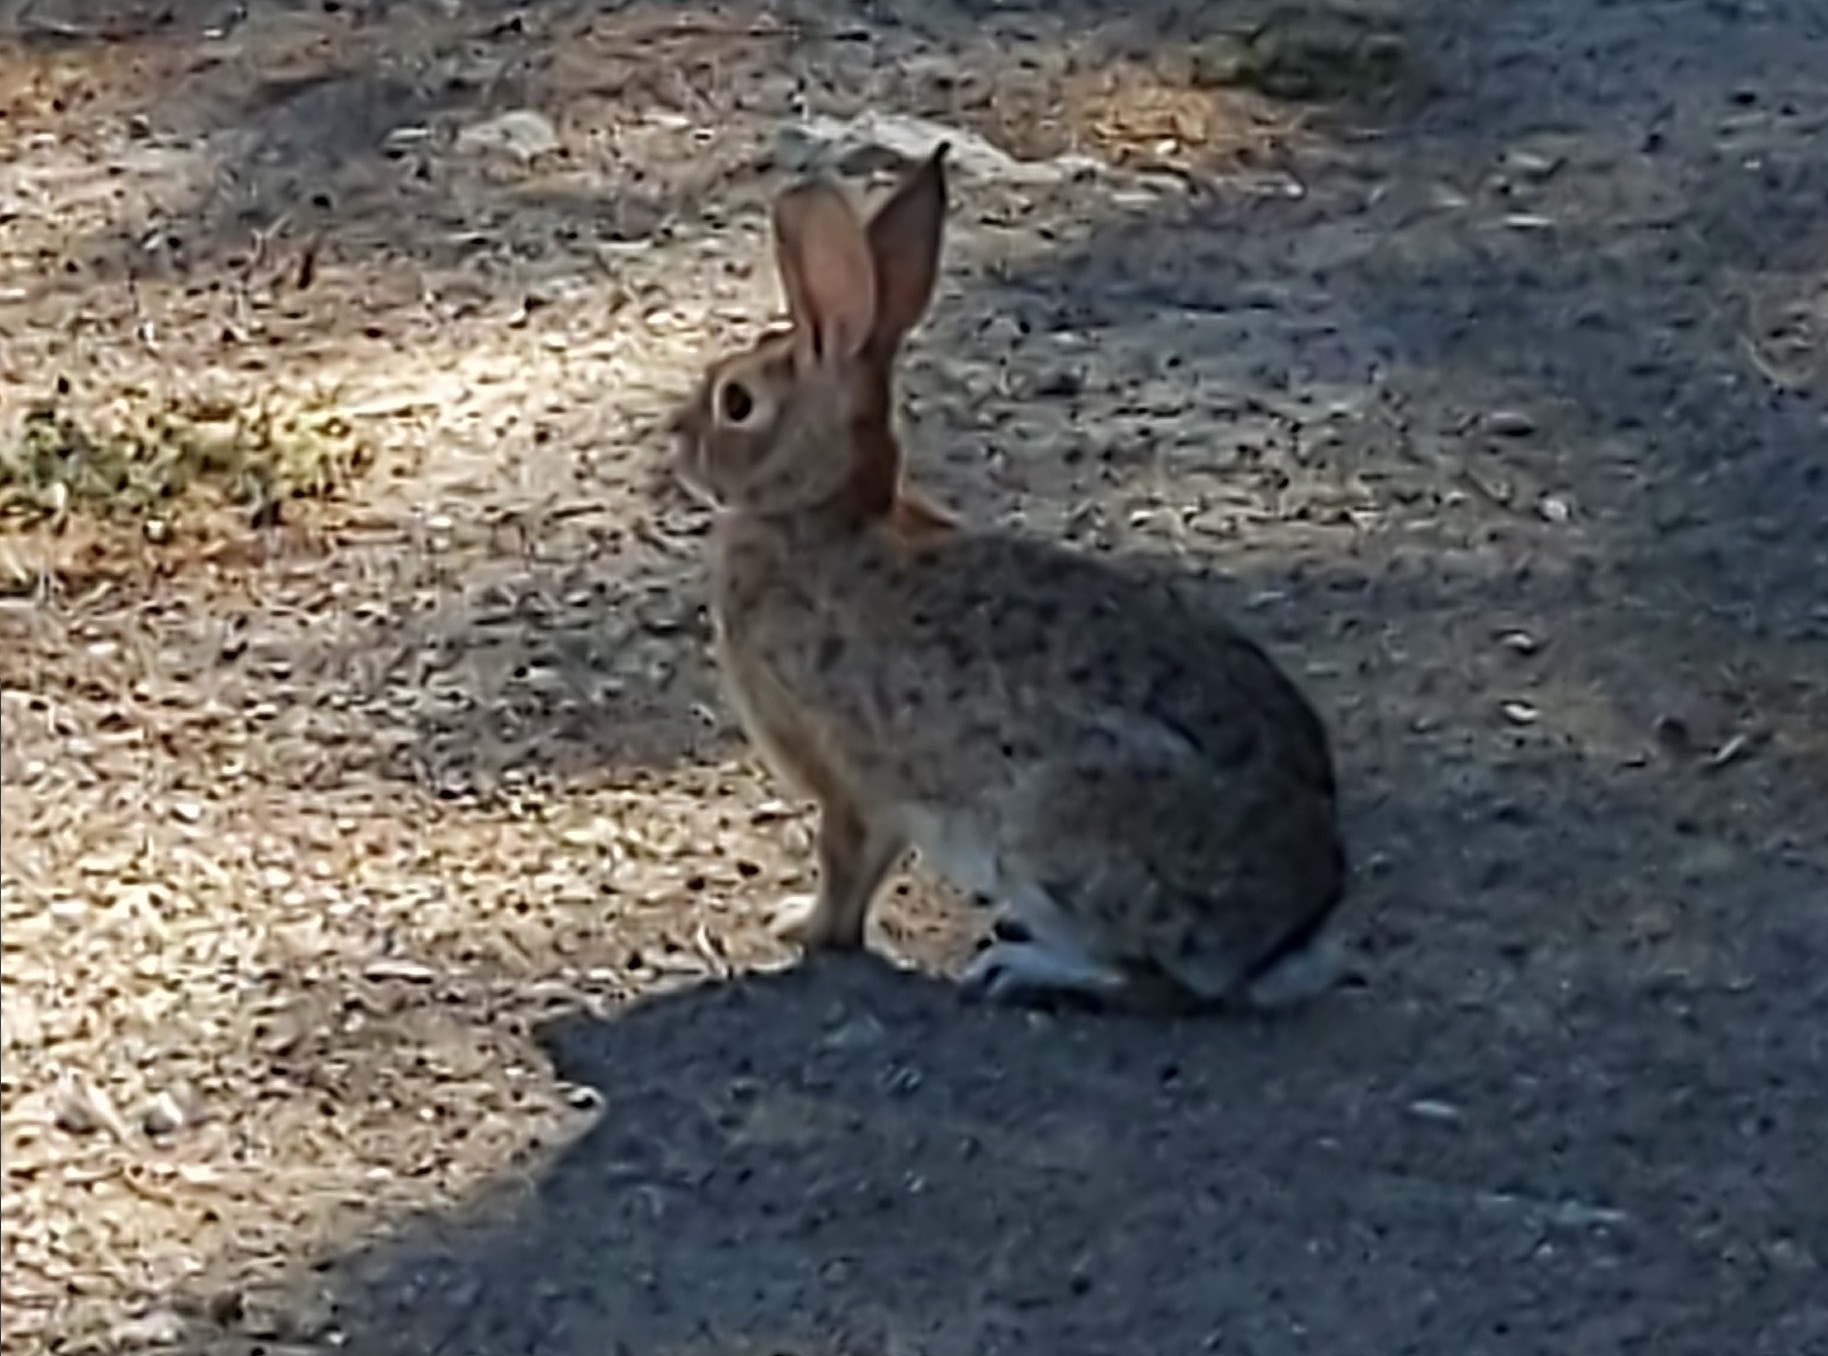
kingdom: Animalia
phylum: Chordata
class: Mammalia
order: Lagomorpha
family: Leporidae
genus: Sylvilagus
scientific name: Sylvilagus audubonii
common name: Desert cottontail
